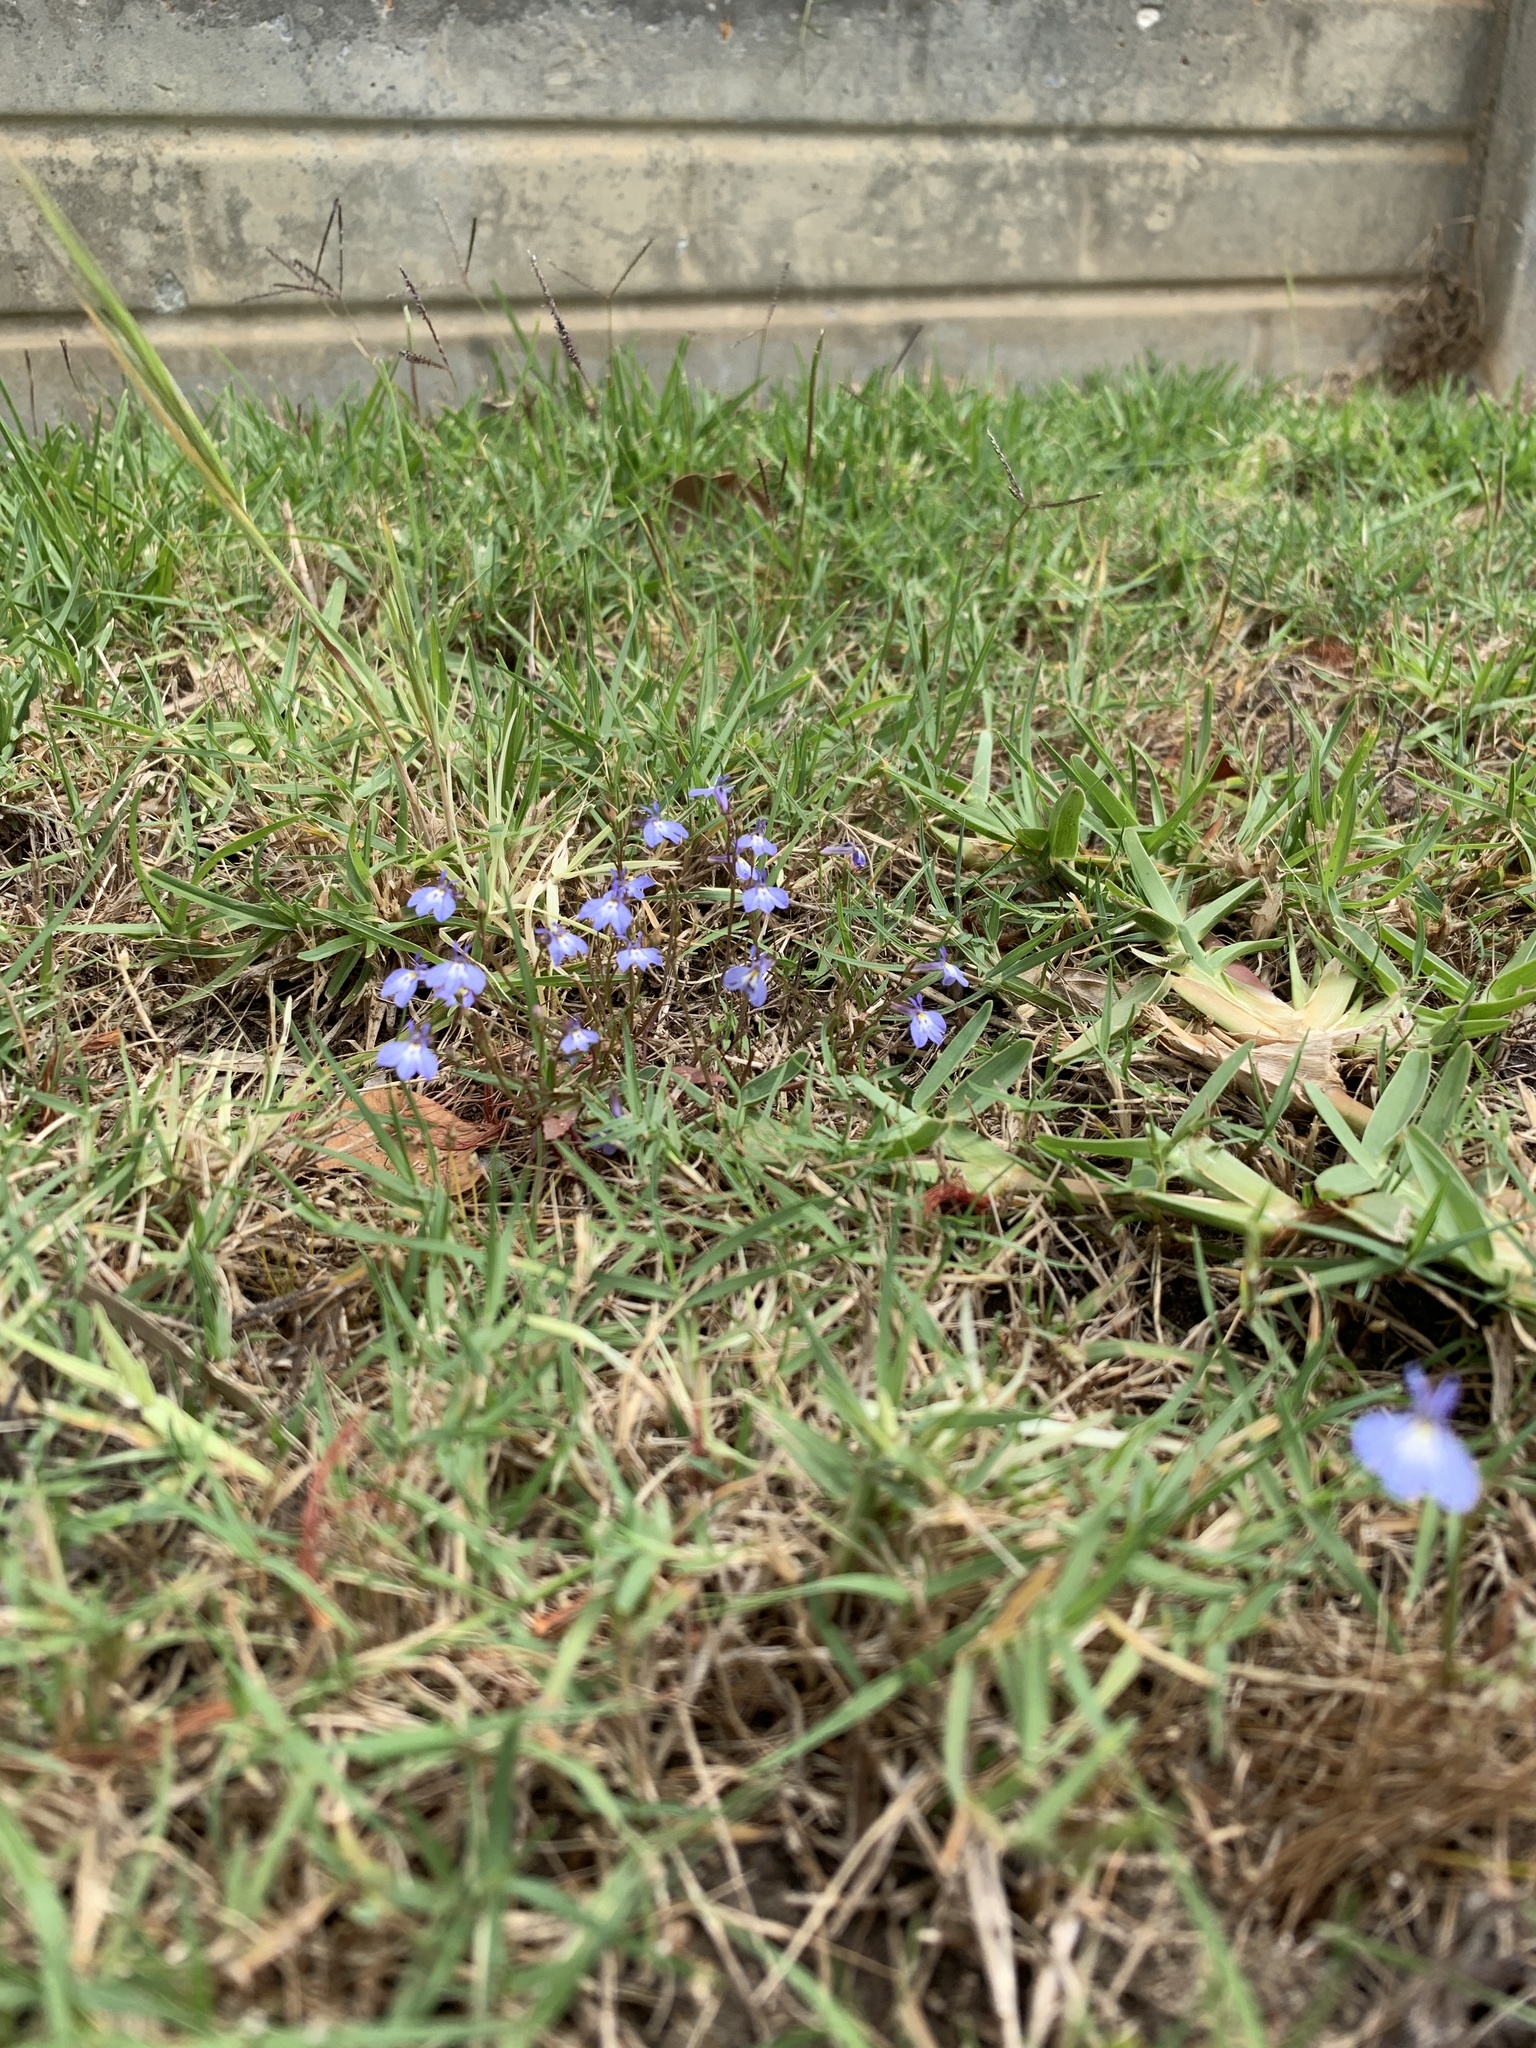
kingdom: Plantae
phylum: Tracheophyta
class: Magnoliopsida
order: Asterales
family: Campanulaceae
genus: Lobelia
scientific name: Lobelia erinus
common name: Edging lobelia
